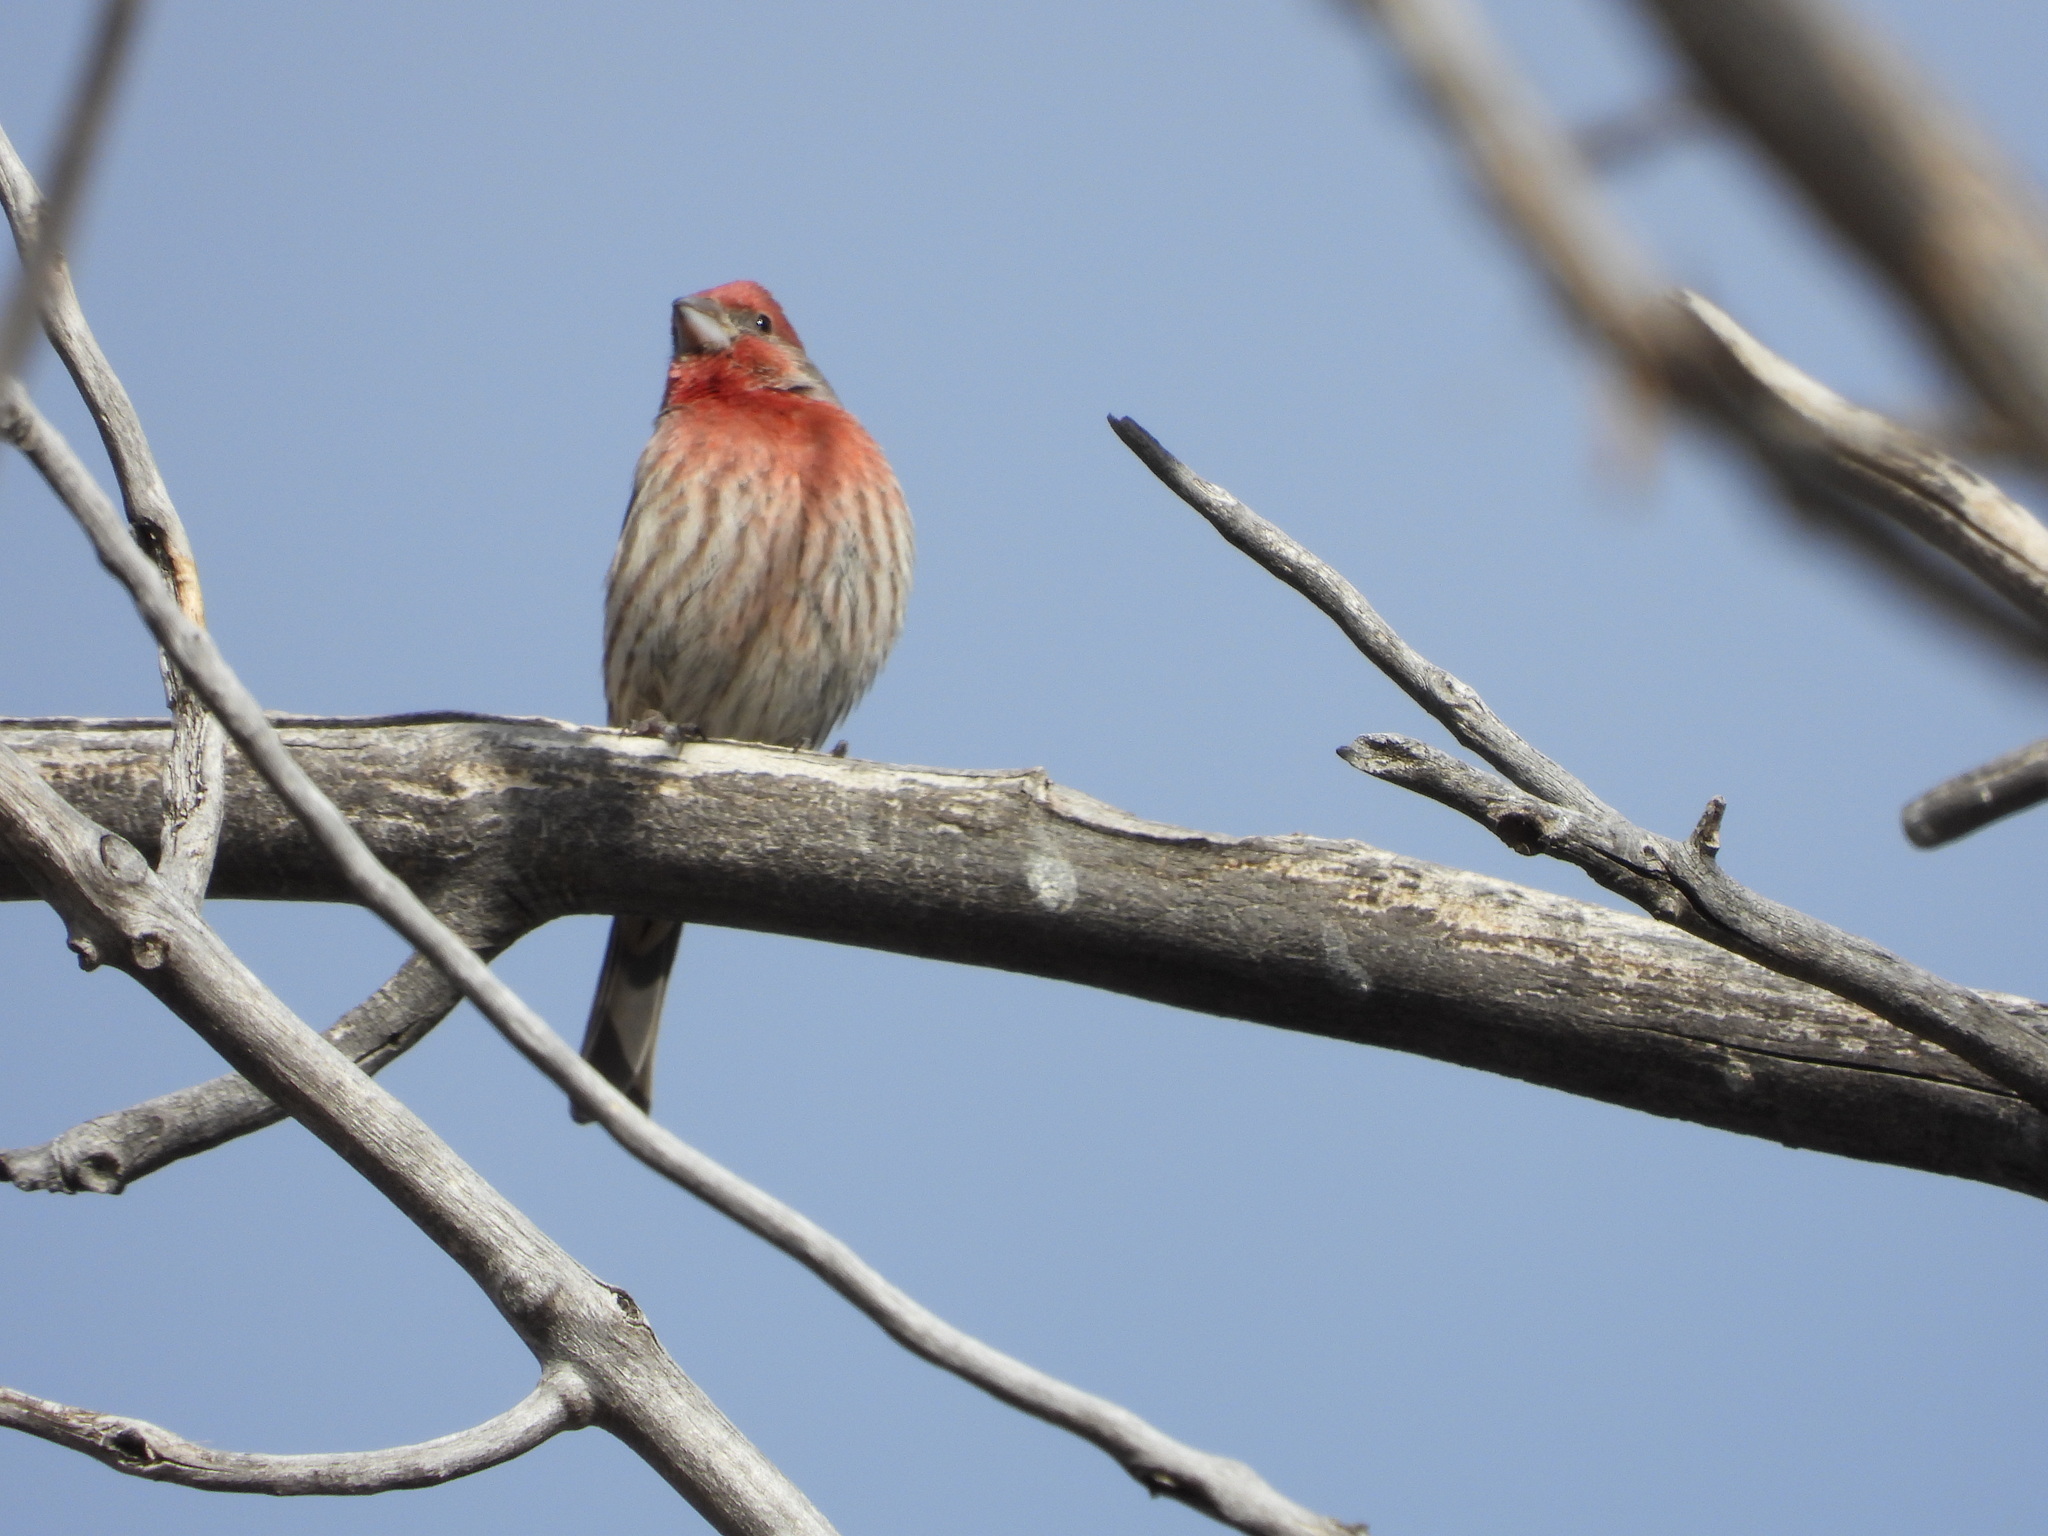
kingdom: Animalia
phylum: Chordata
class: Aves
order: Passeriformes
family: Fringillidae
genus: Haemorhous
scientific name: Haemorhous mexicanus
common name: House finch
